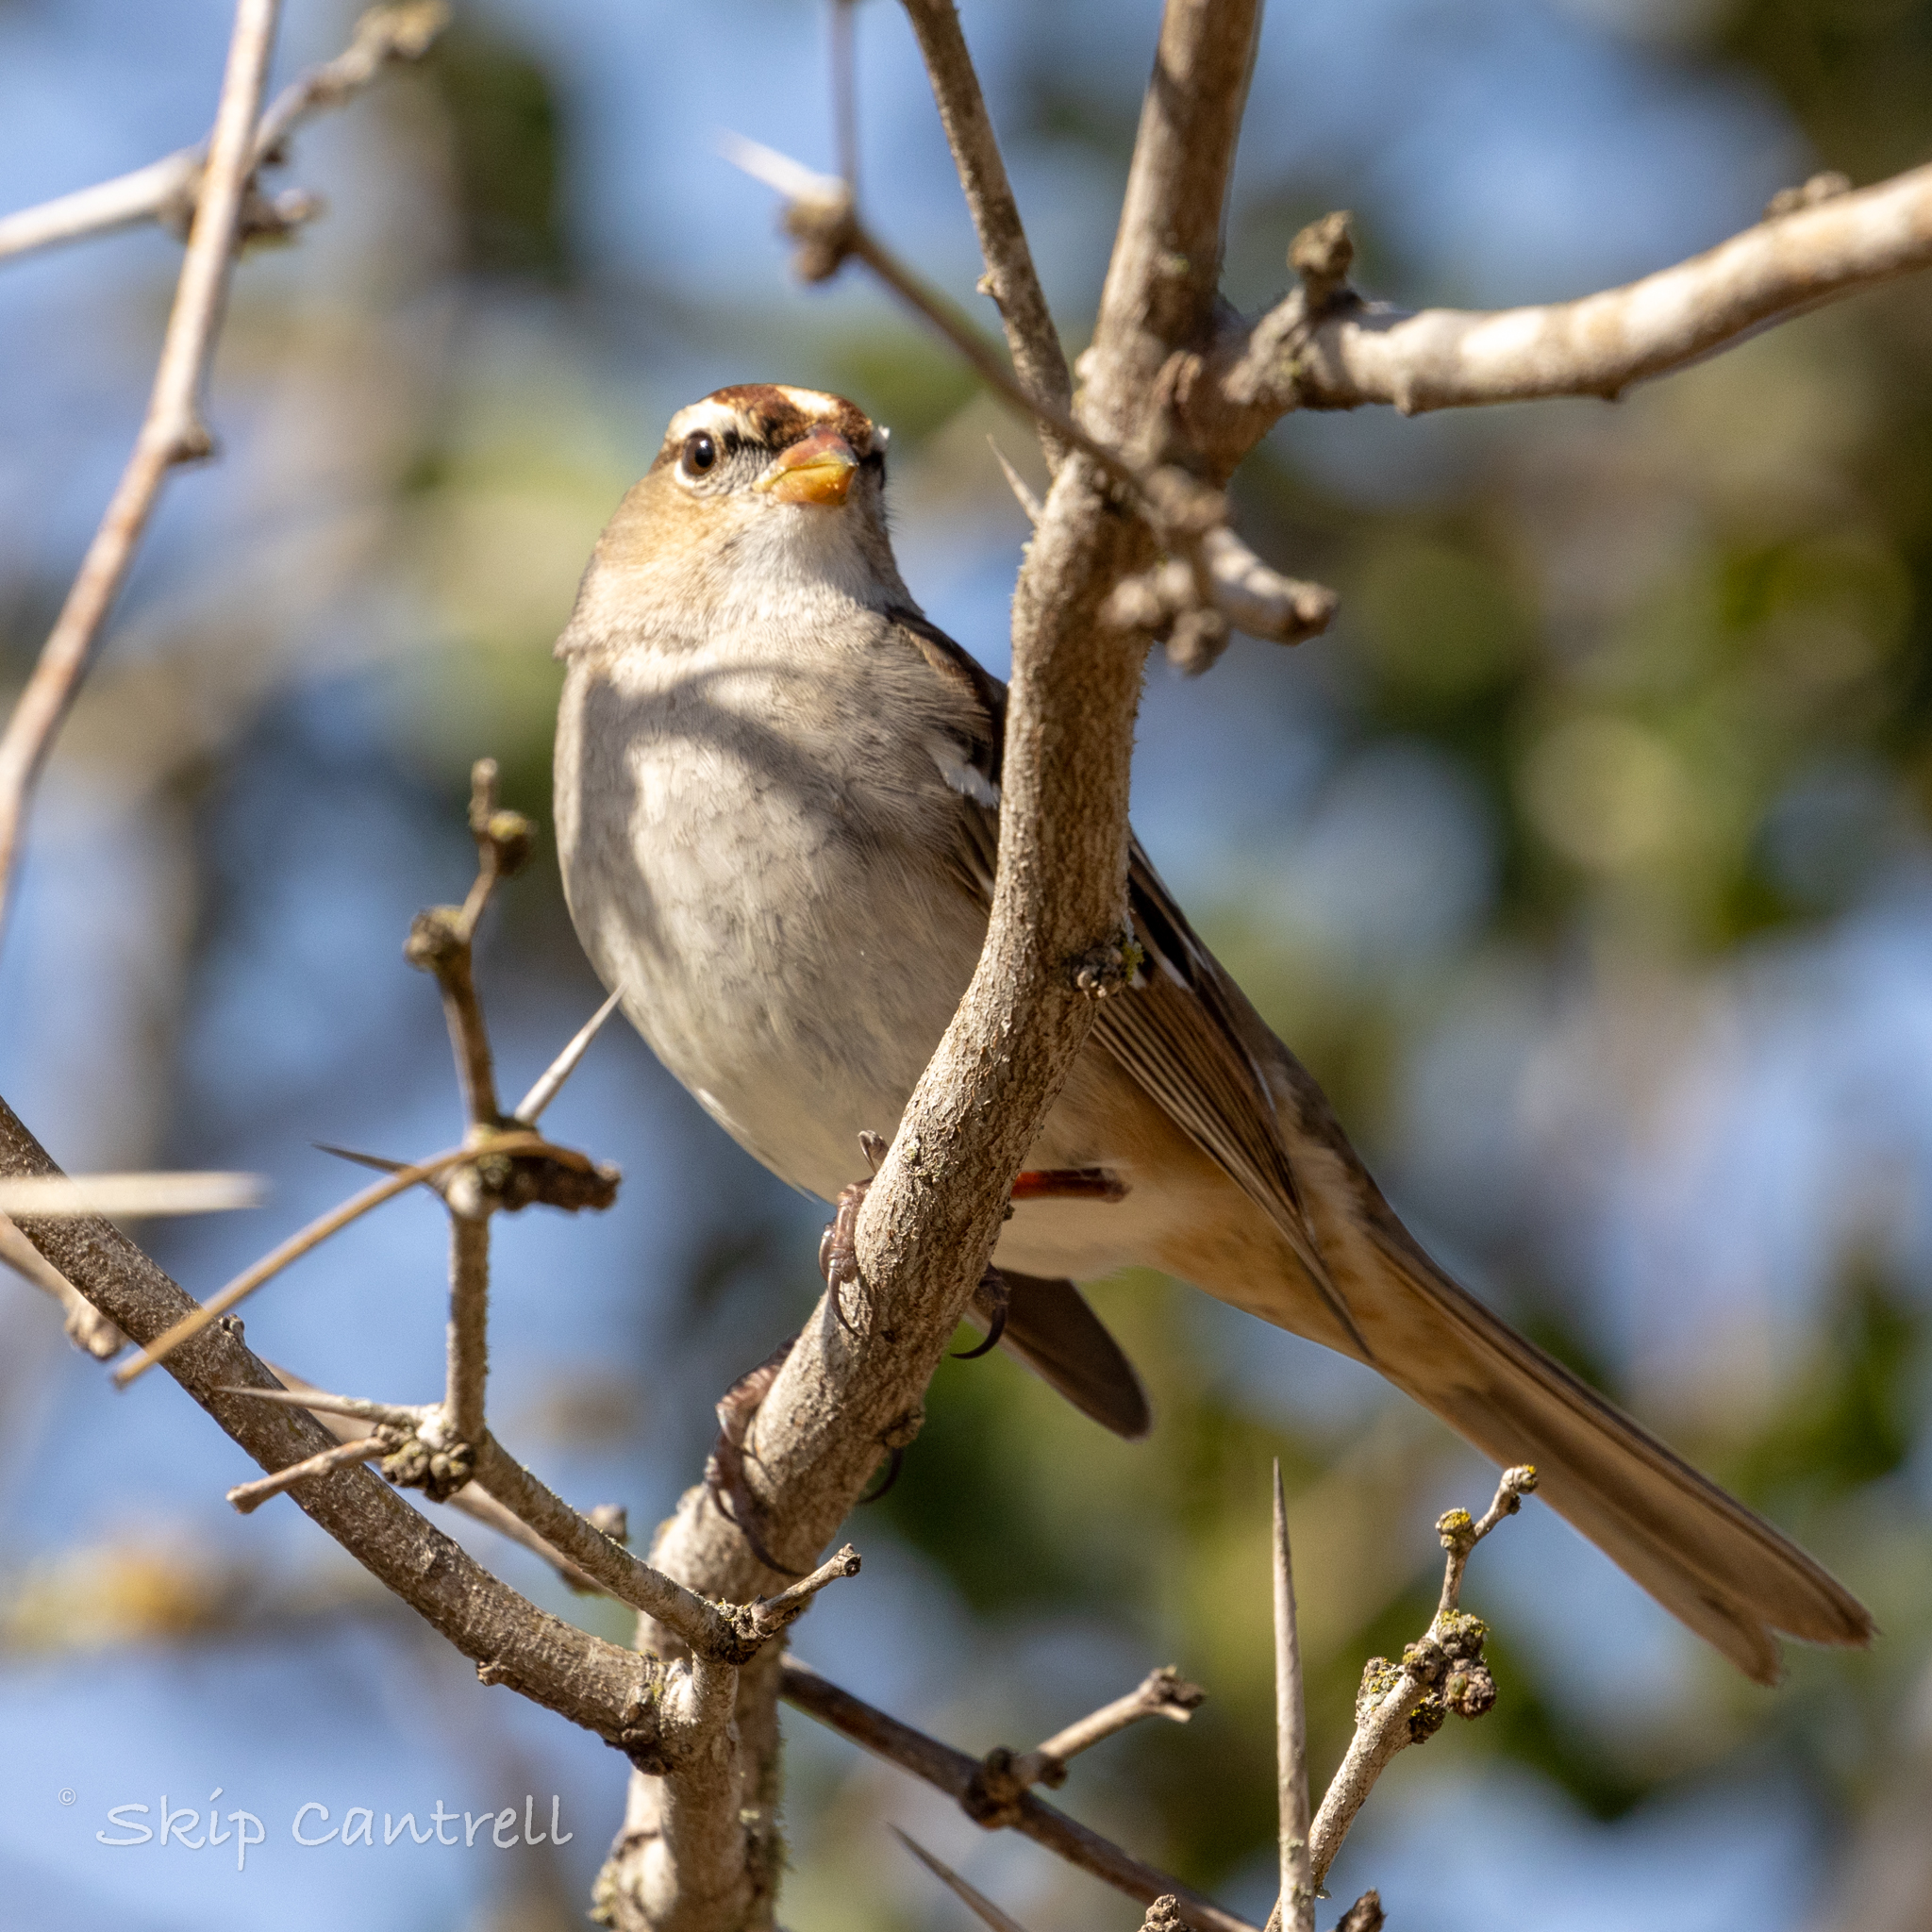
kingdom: Animalia
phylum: Chordata
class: Aves
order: Passeriformes
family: Passerellidae
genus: Zonotrichia
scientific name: Zonotrichia leucophrys
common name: White-crowned sparrow
